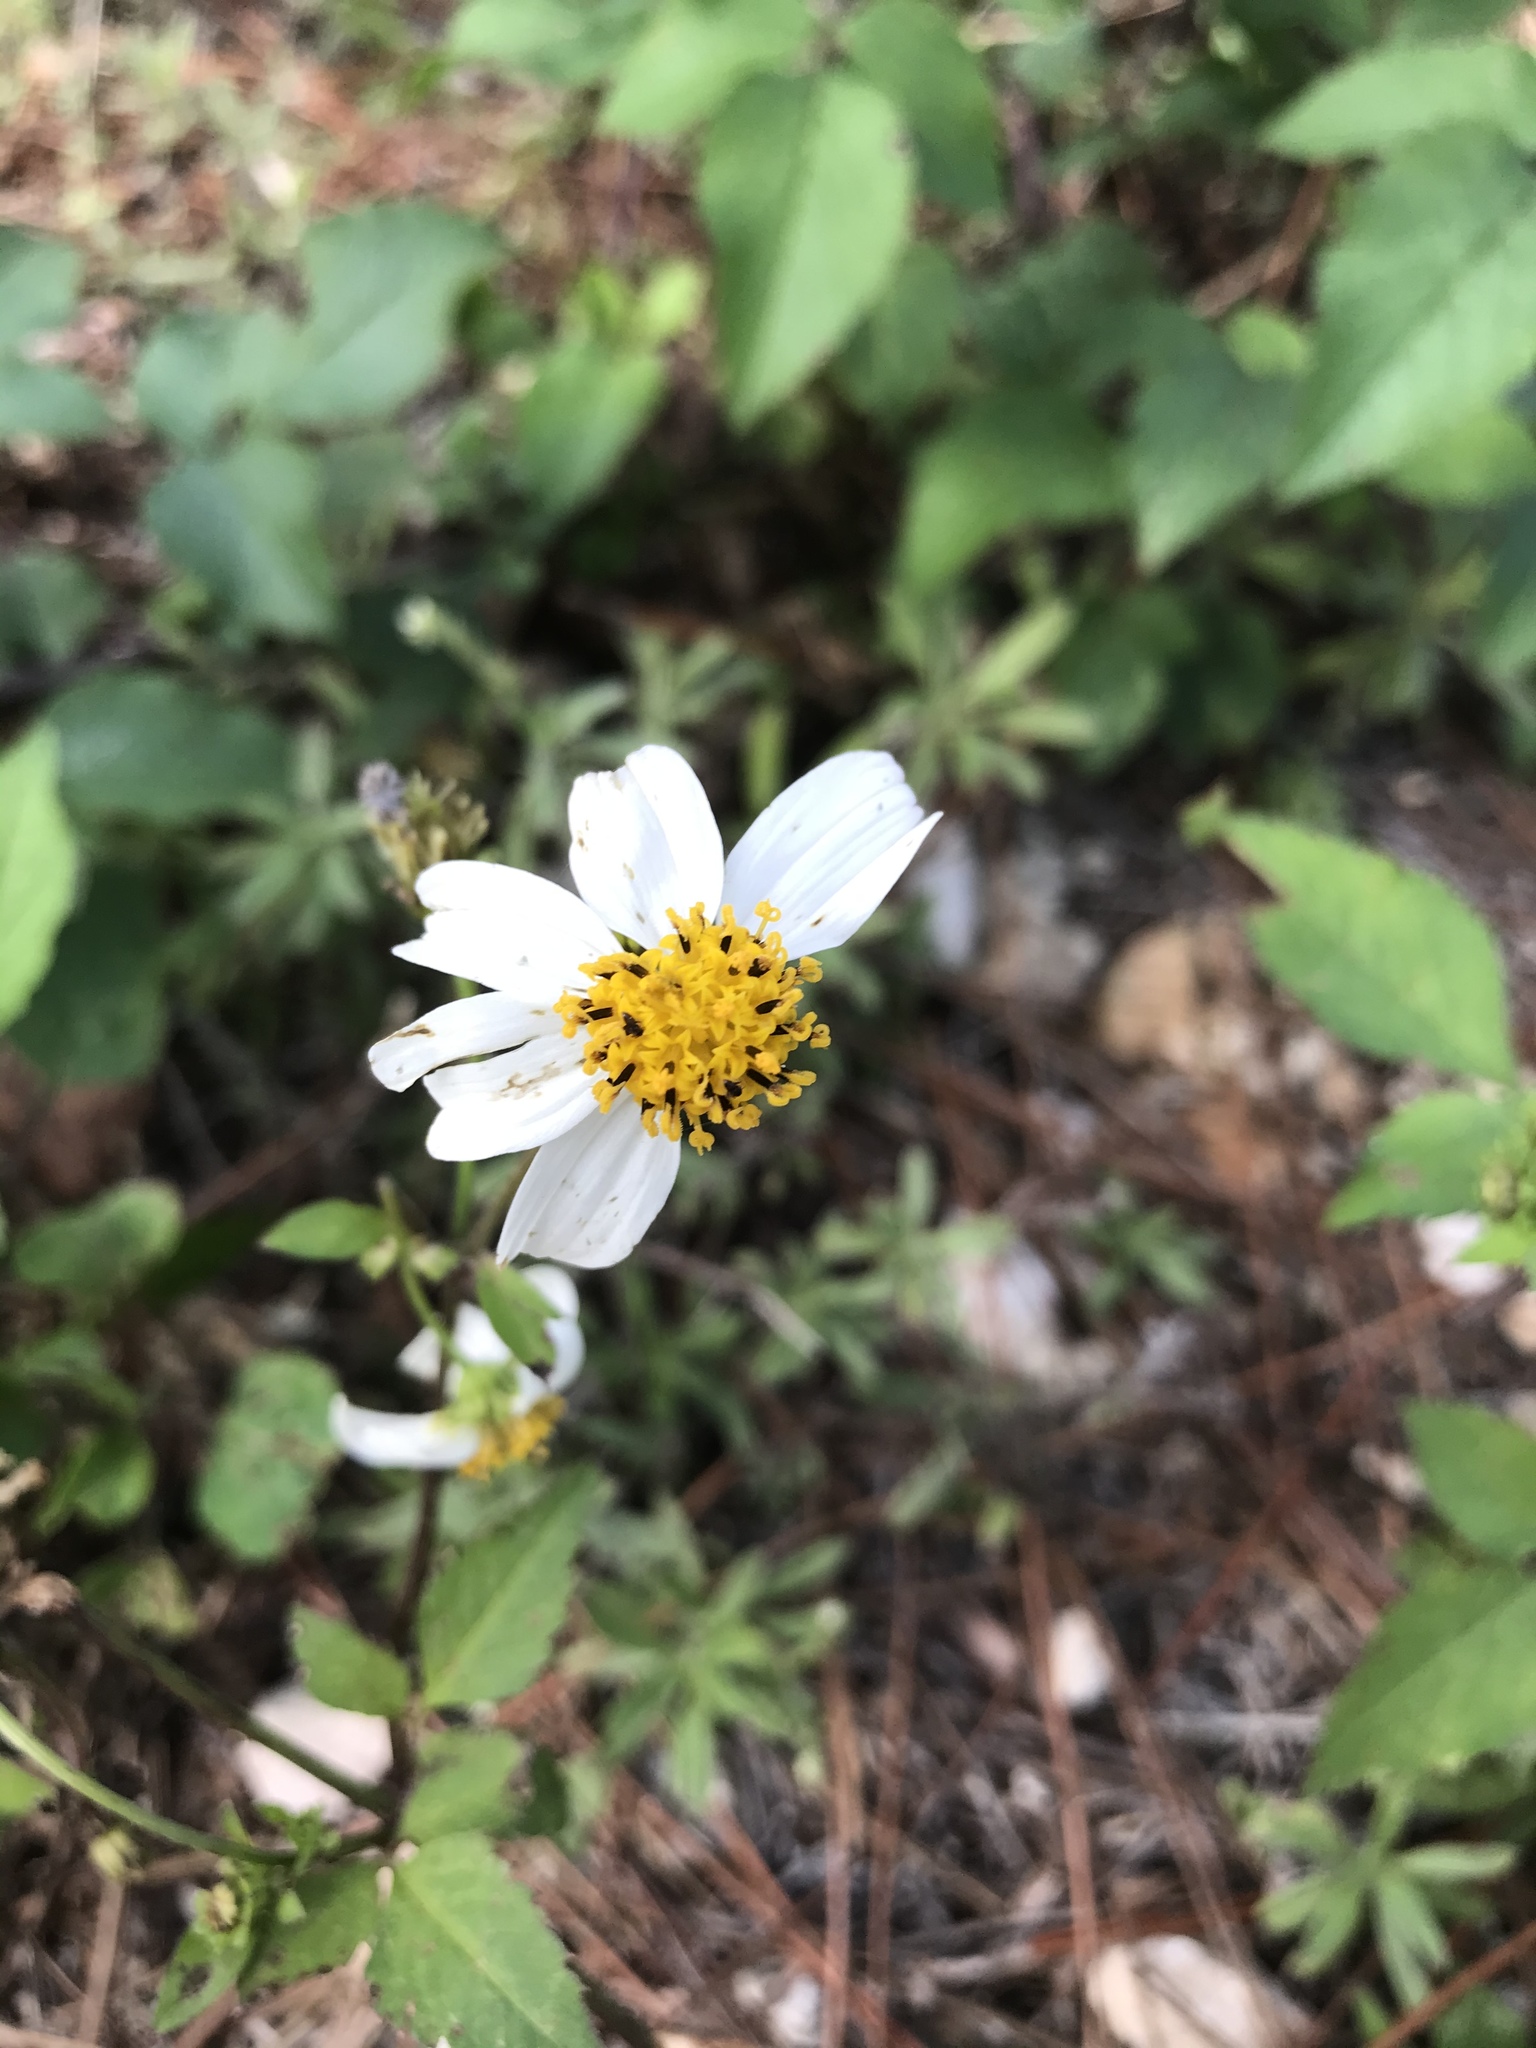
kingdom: Plantae
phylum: Tracheophyta
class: Magnoliopsida
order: Asterales
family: Asteraceae
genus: Bidens
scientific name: Bidens alba
